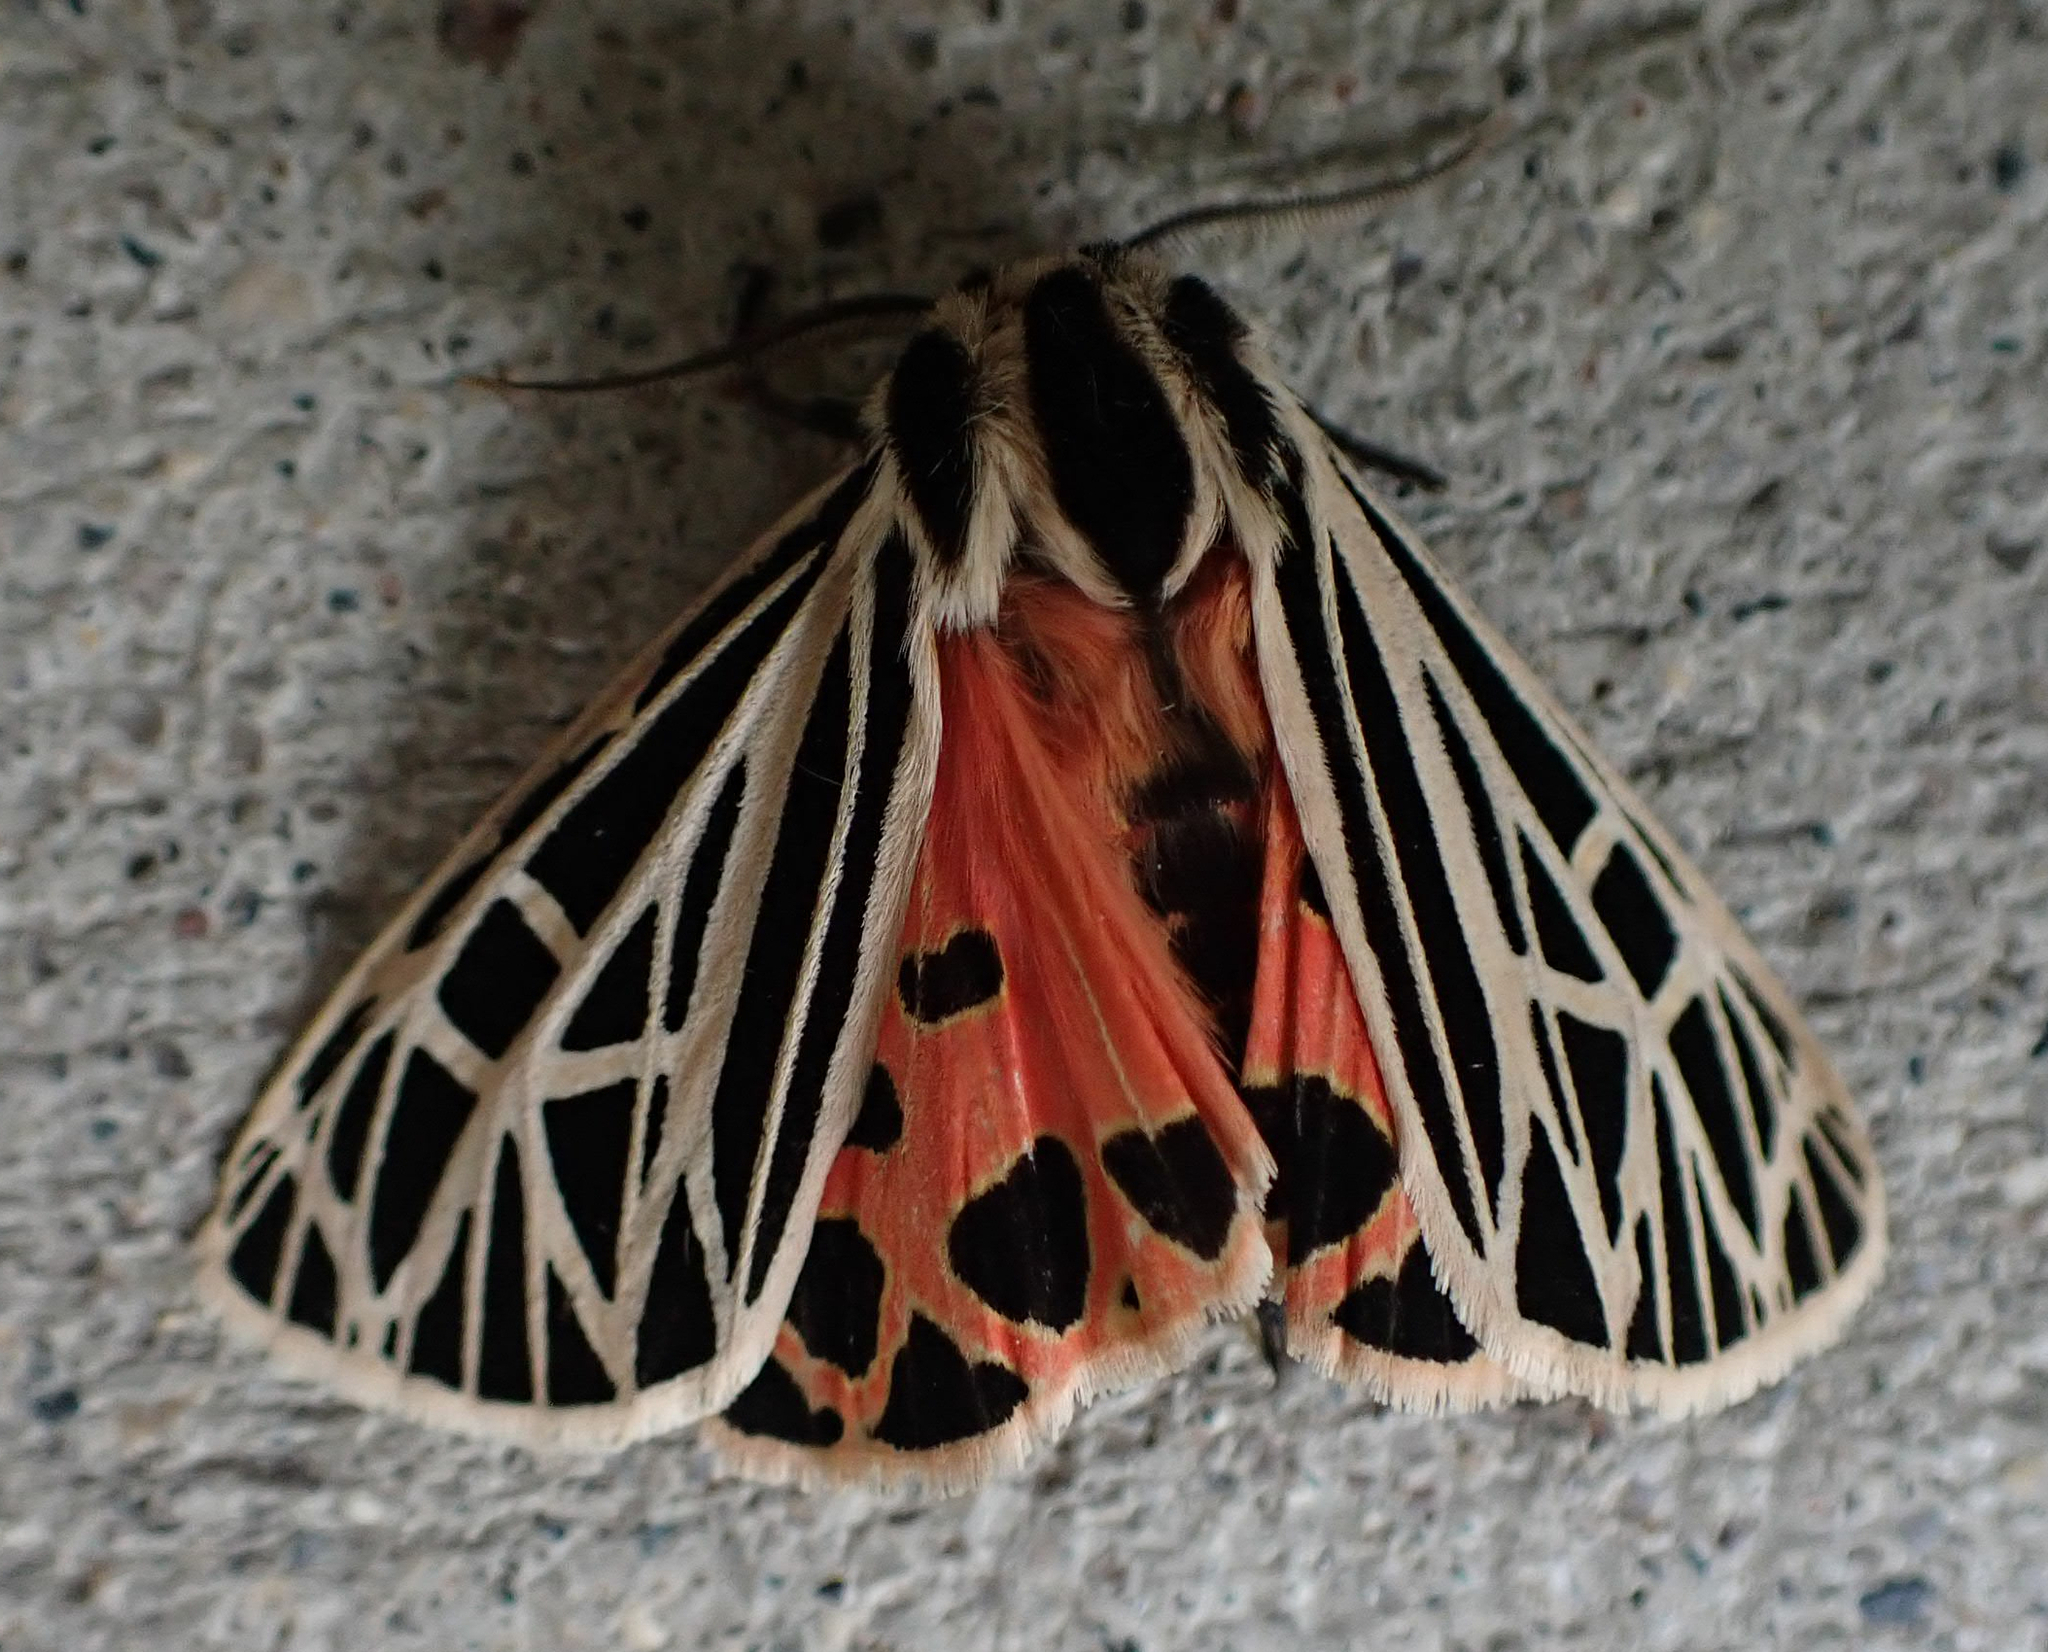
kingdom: Animalia
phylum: Arthropoda
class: Insecta
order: Lepidoptera
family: Erebidae
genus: Grammia
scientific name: Grammia virgo
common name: Virgin tiger moth
